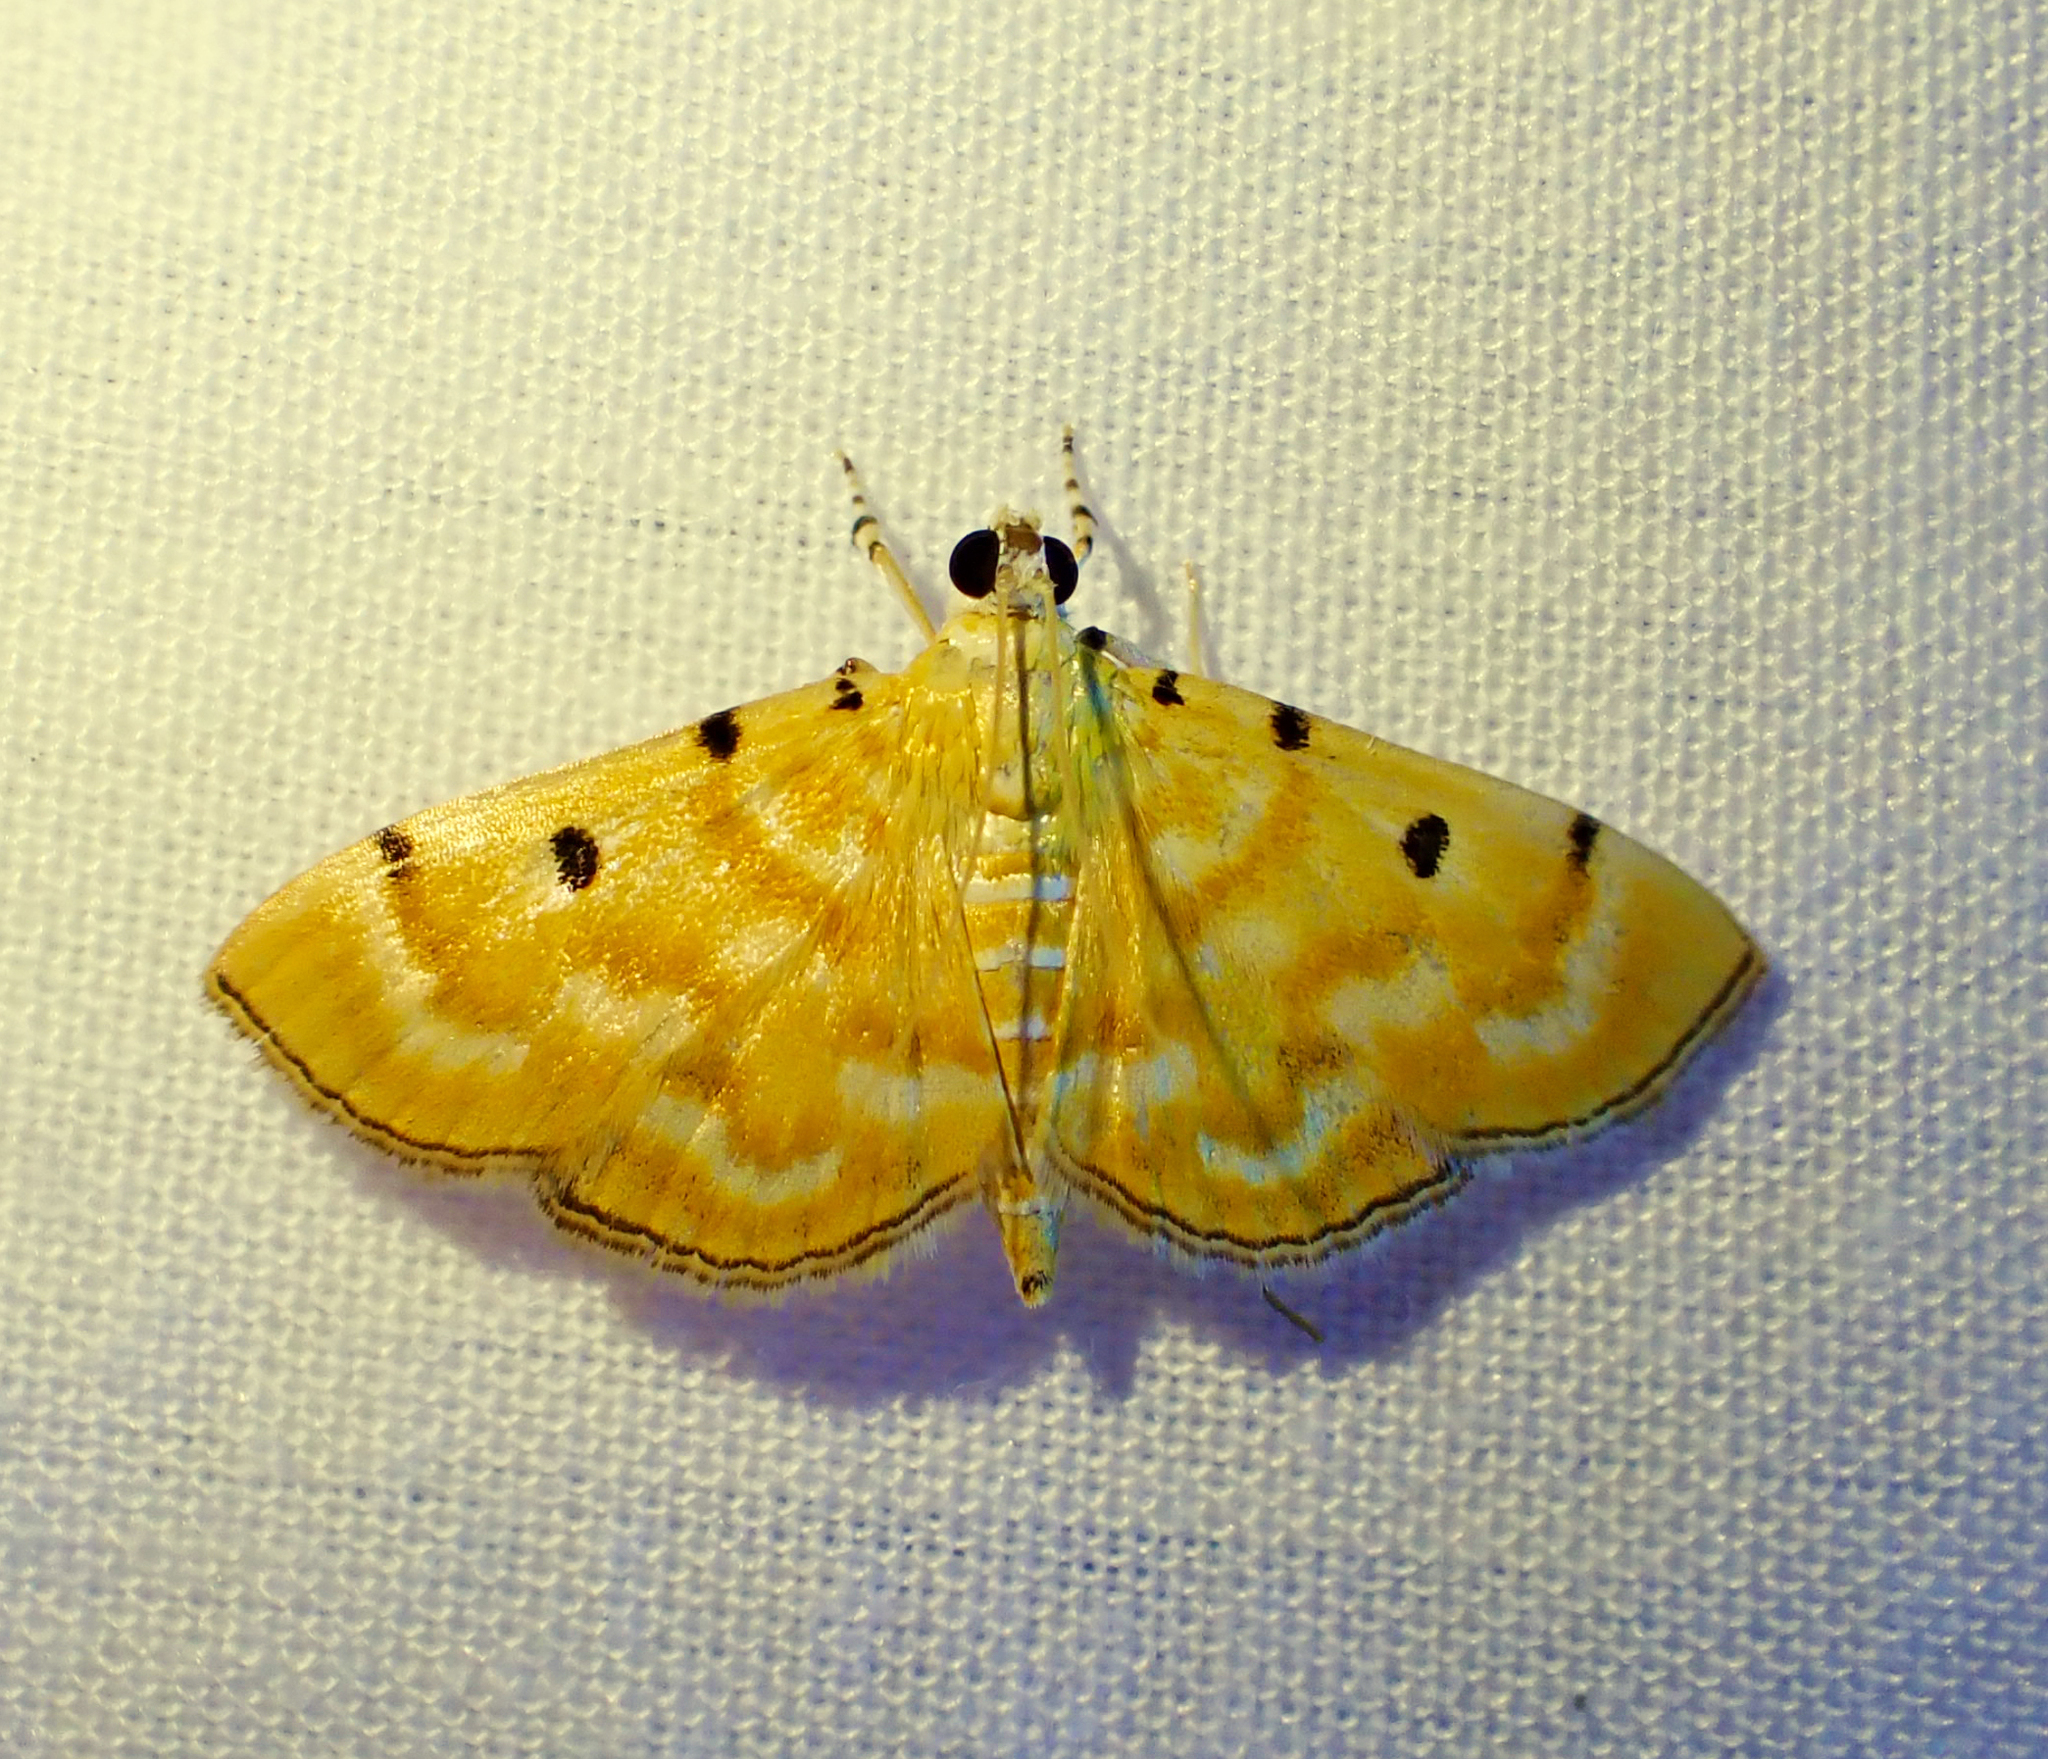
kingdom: Animalia
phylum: Arthropoda
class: Insecta
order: Lepidoptera
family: Crambidae
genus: Notarcha
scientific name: Notarcha obrinusalis
